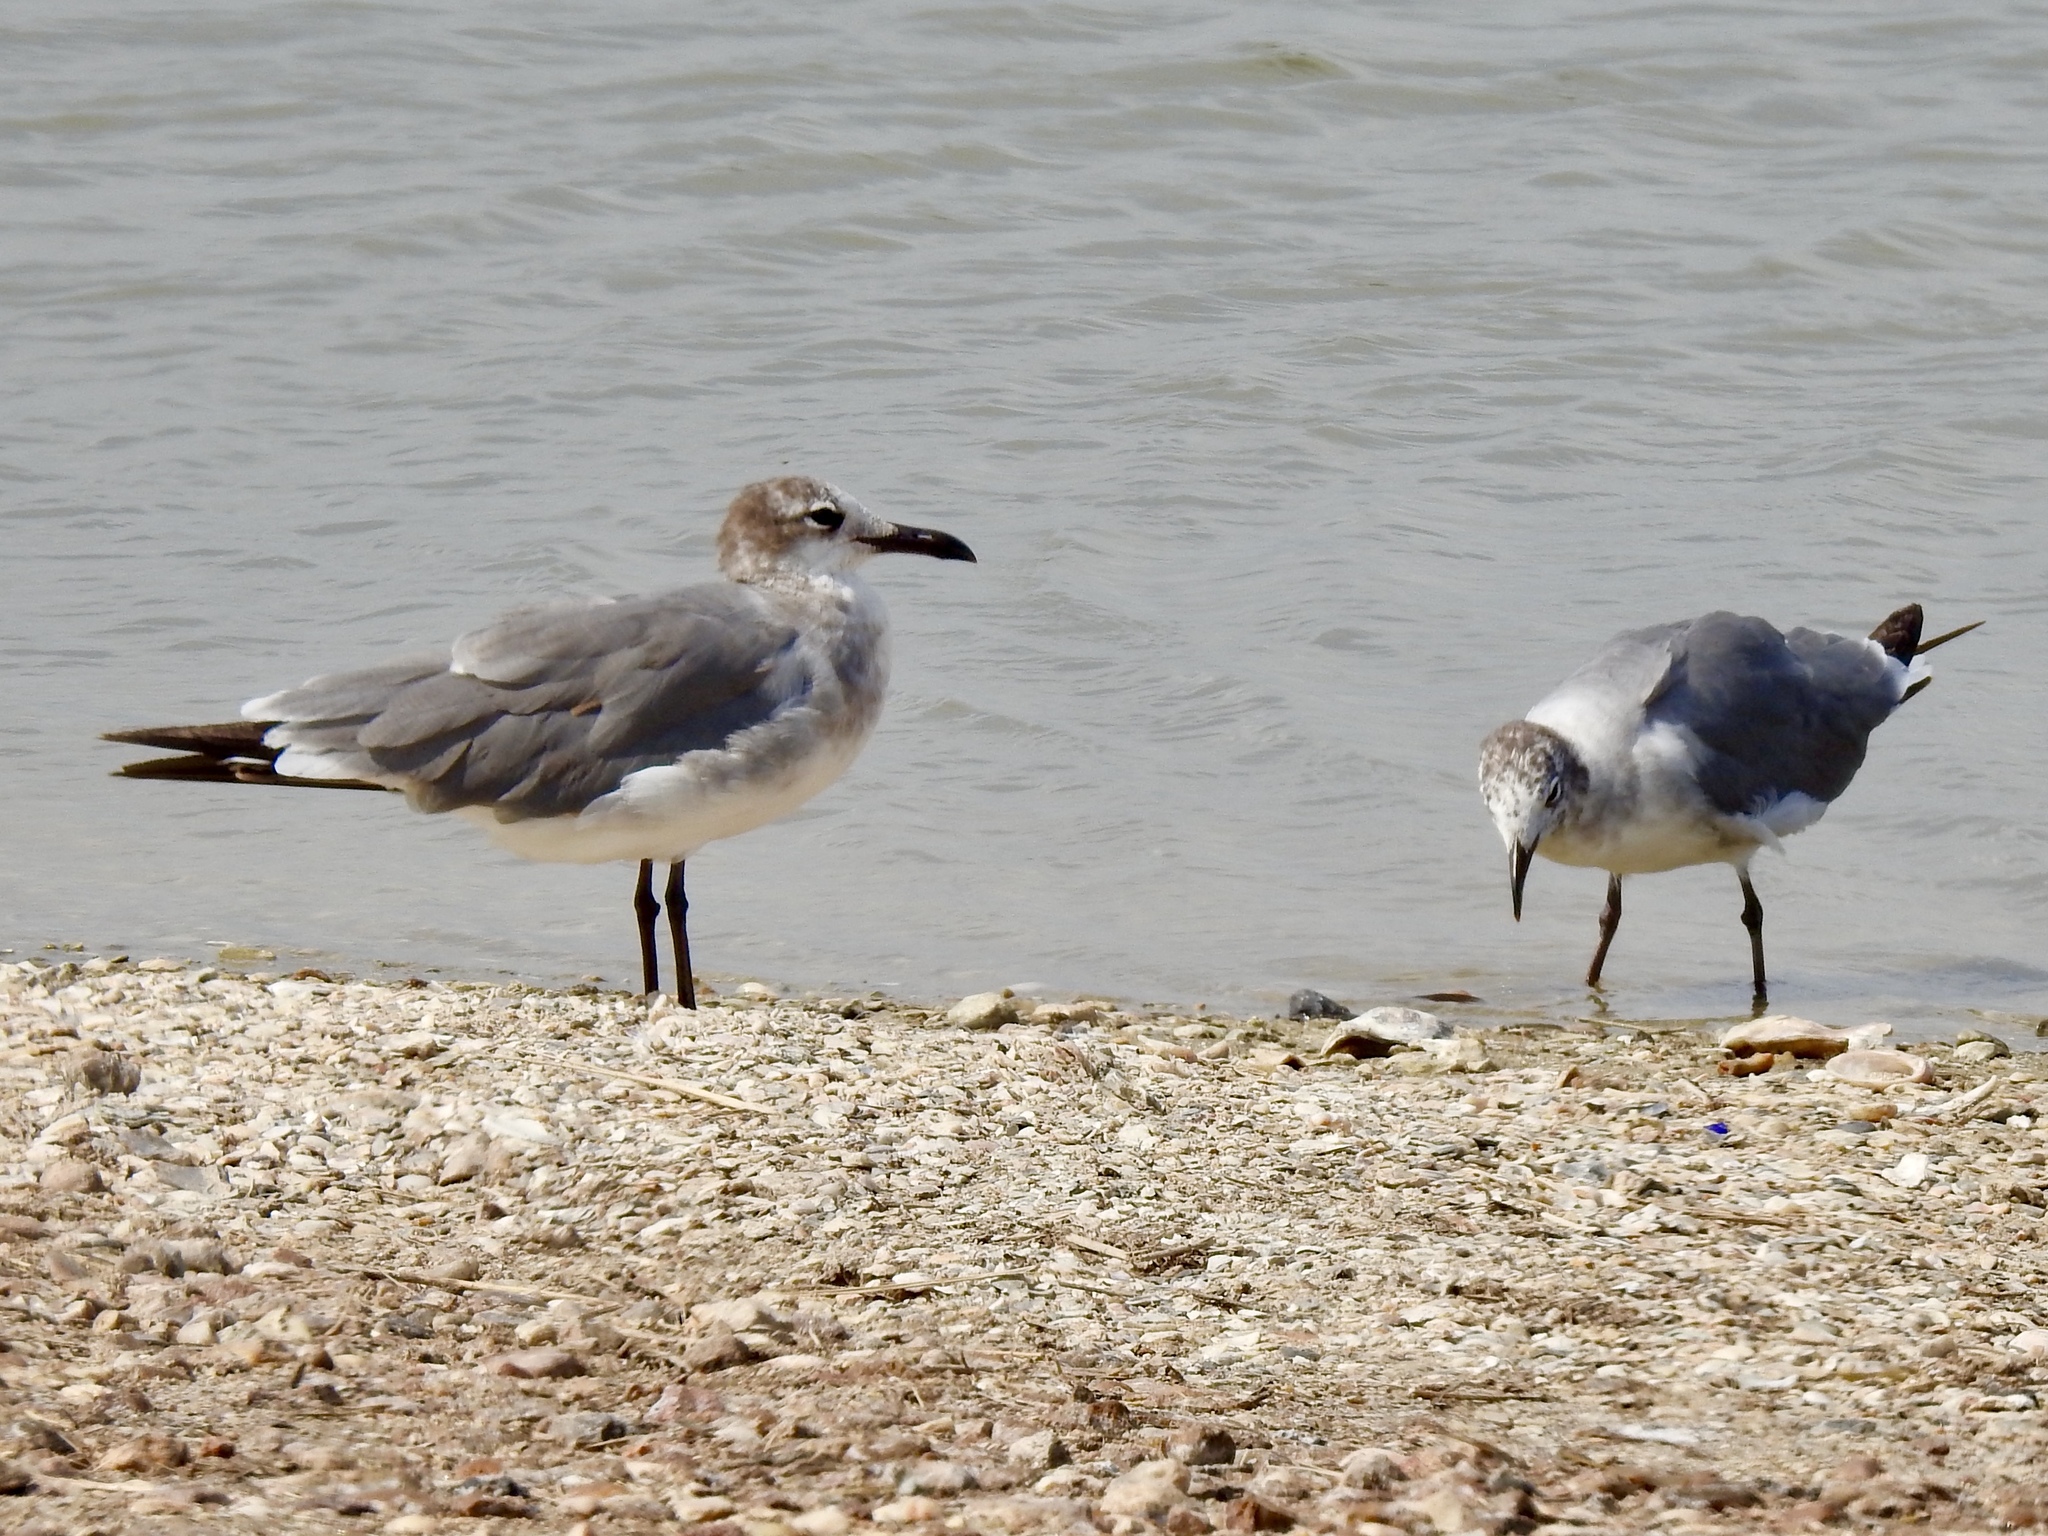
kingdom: Animalia
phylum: Chordata
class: Aves
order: Charadriiformes
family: Laridae
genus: Leucophaeus
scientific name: Leucophaeus atricilla
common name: Laughing gull
